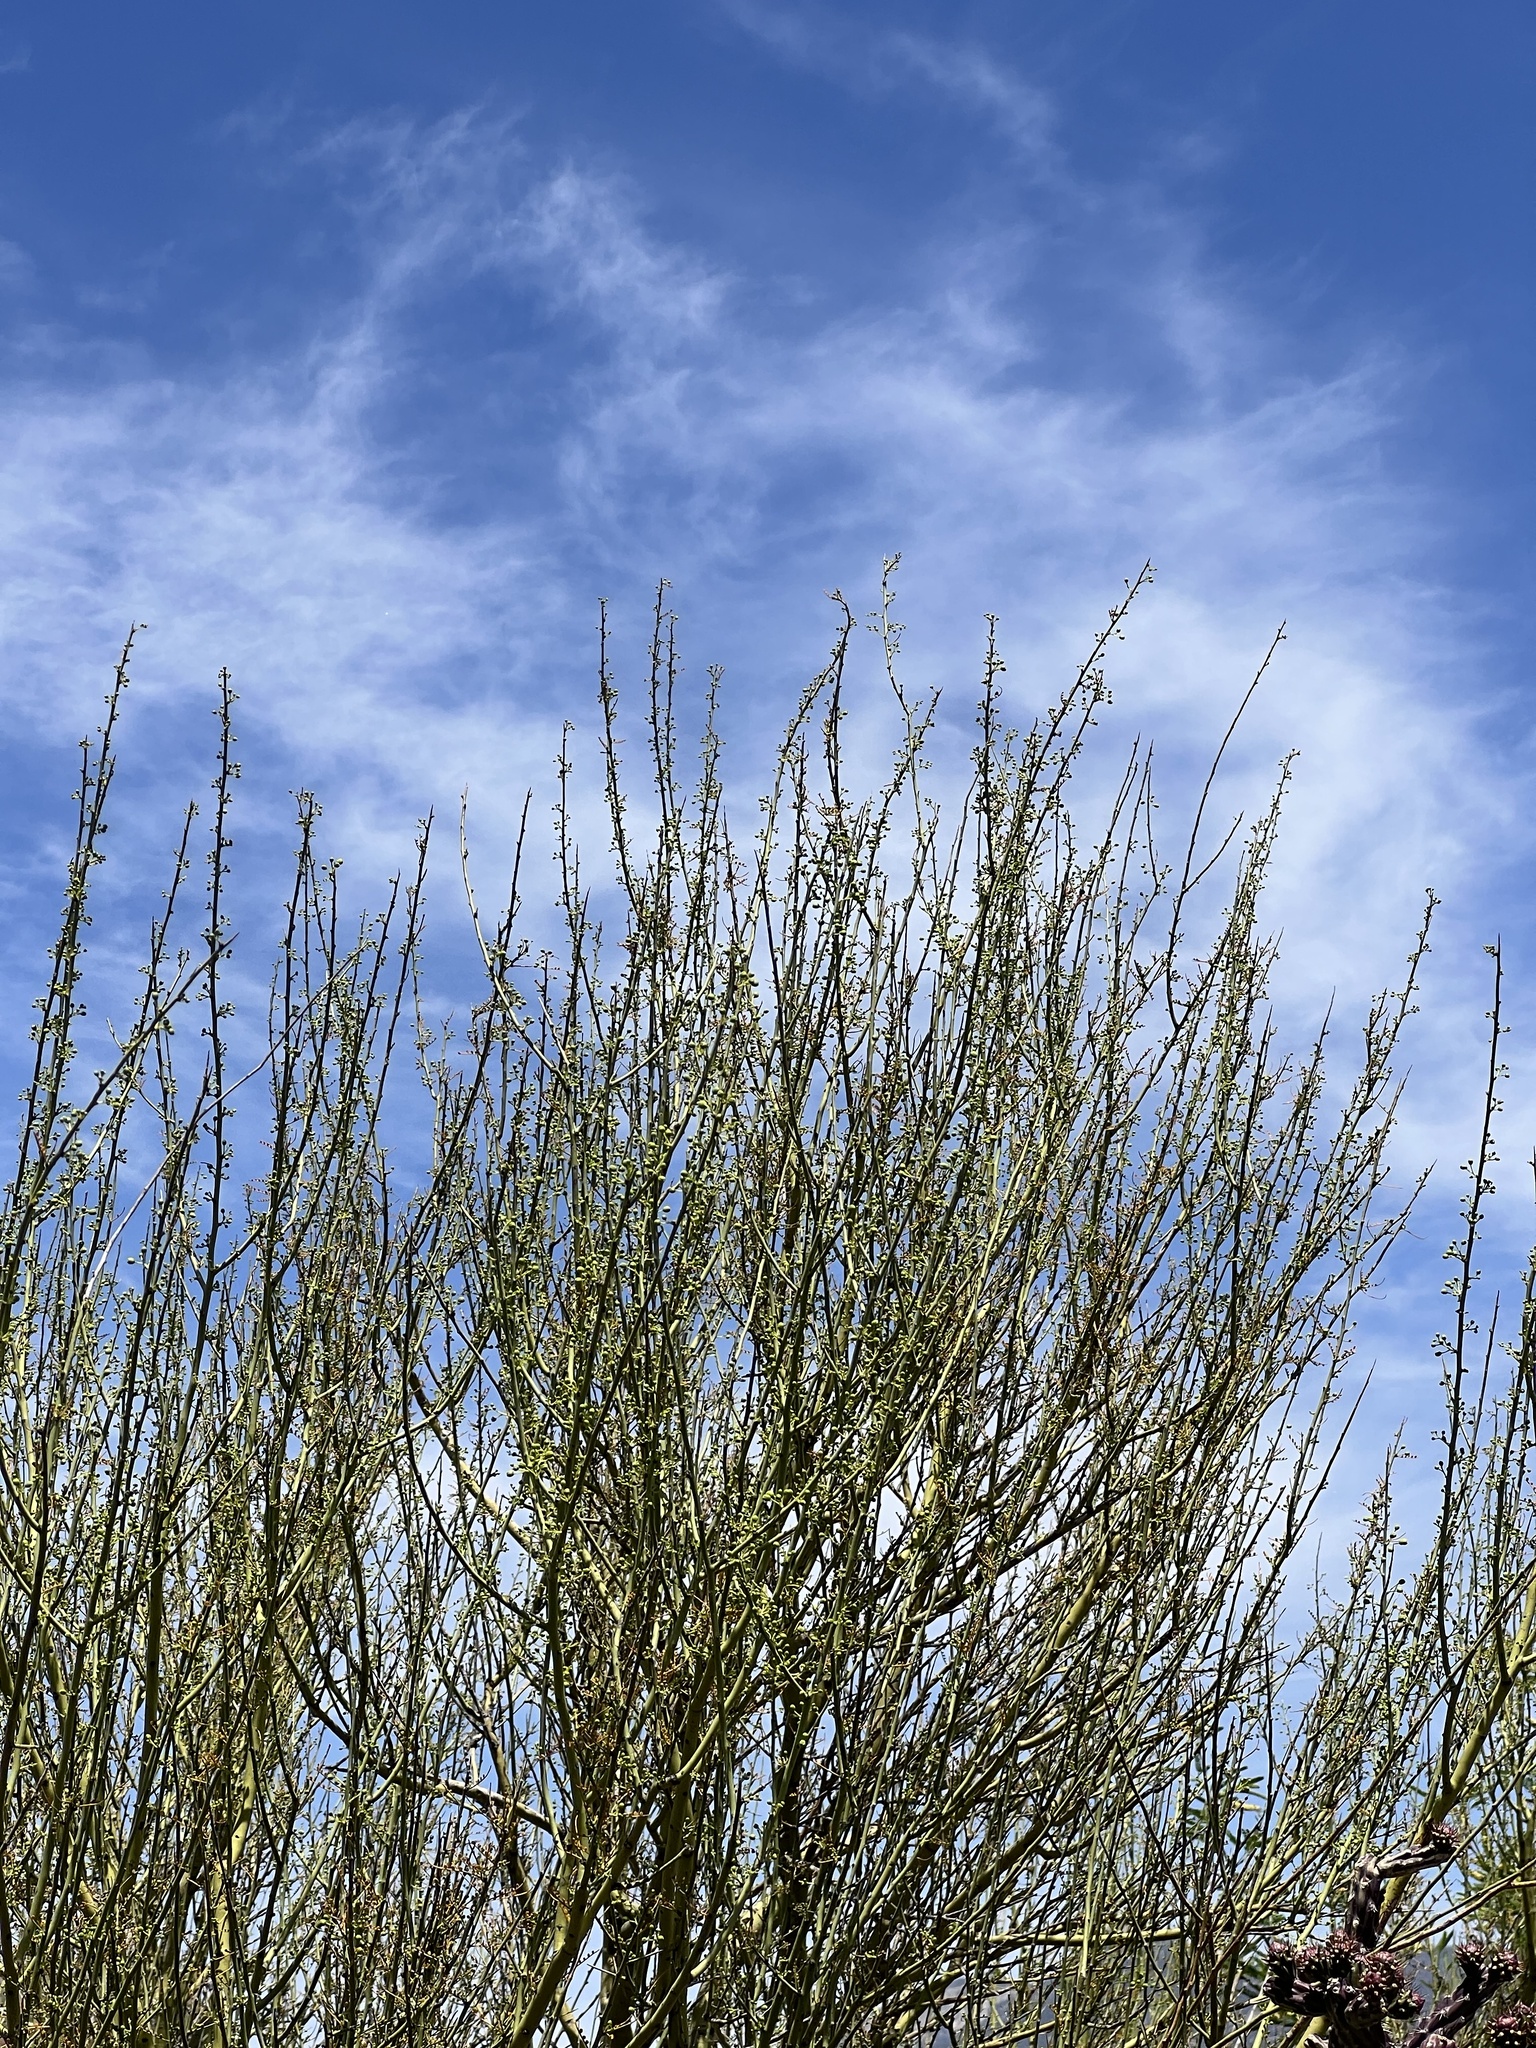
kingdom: Plantae
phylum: Tracheophyta
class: Magnoliopsida
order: Fabales
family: Fabaceae
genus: Parkinsonia
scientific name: Parkinsonia microphylla
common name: Yellow paloverde
